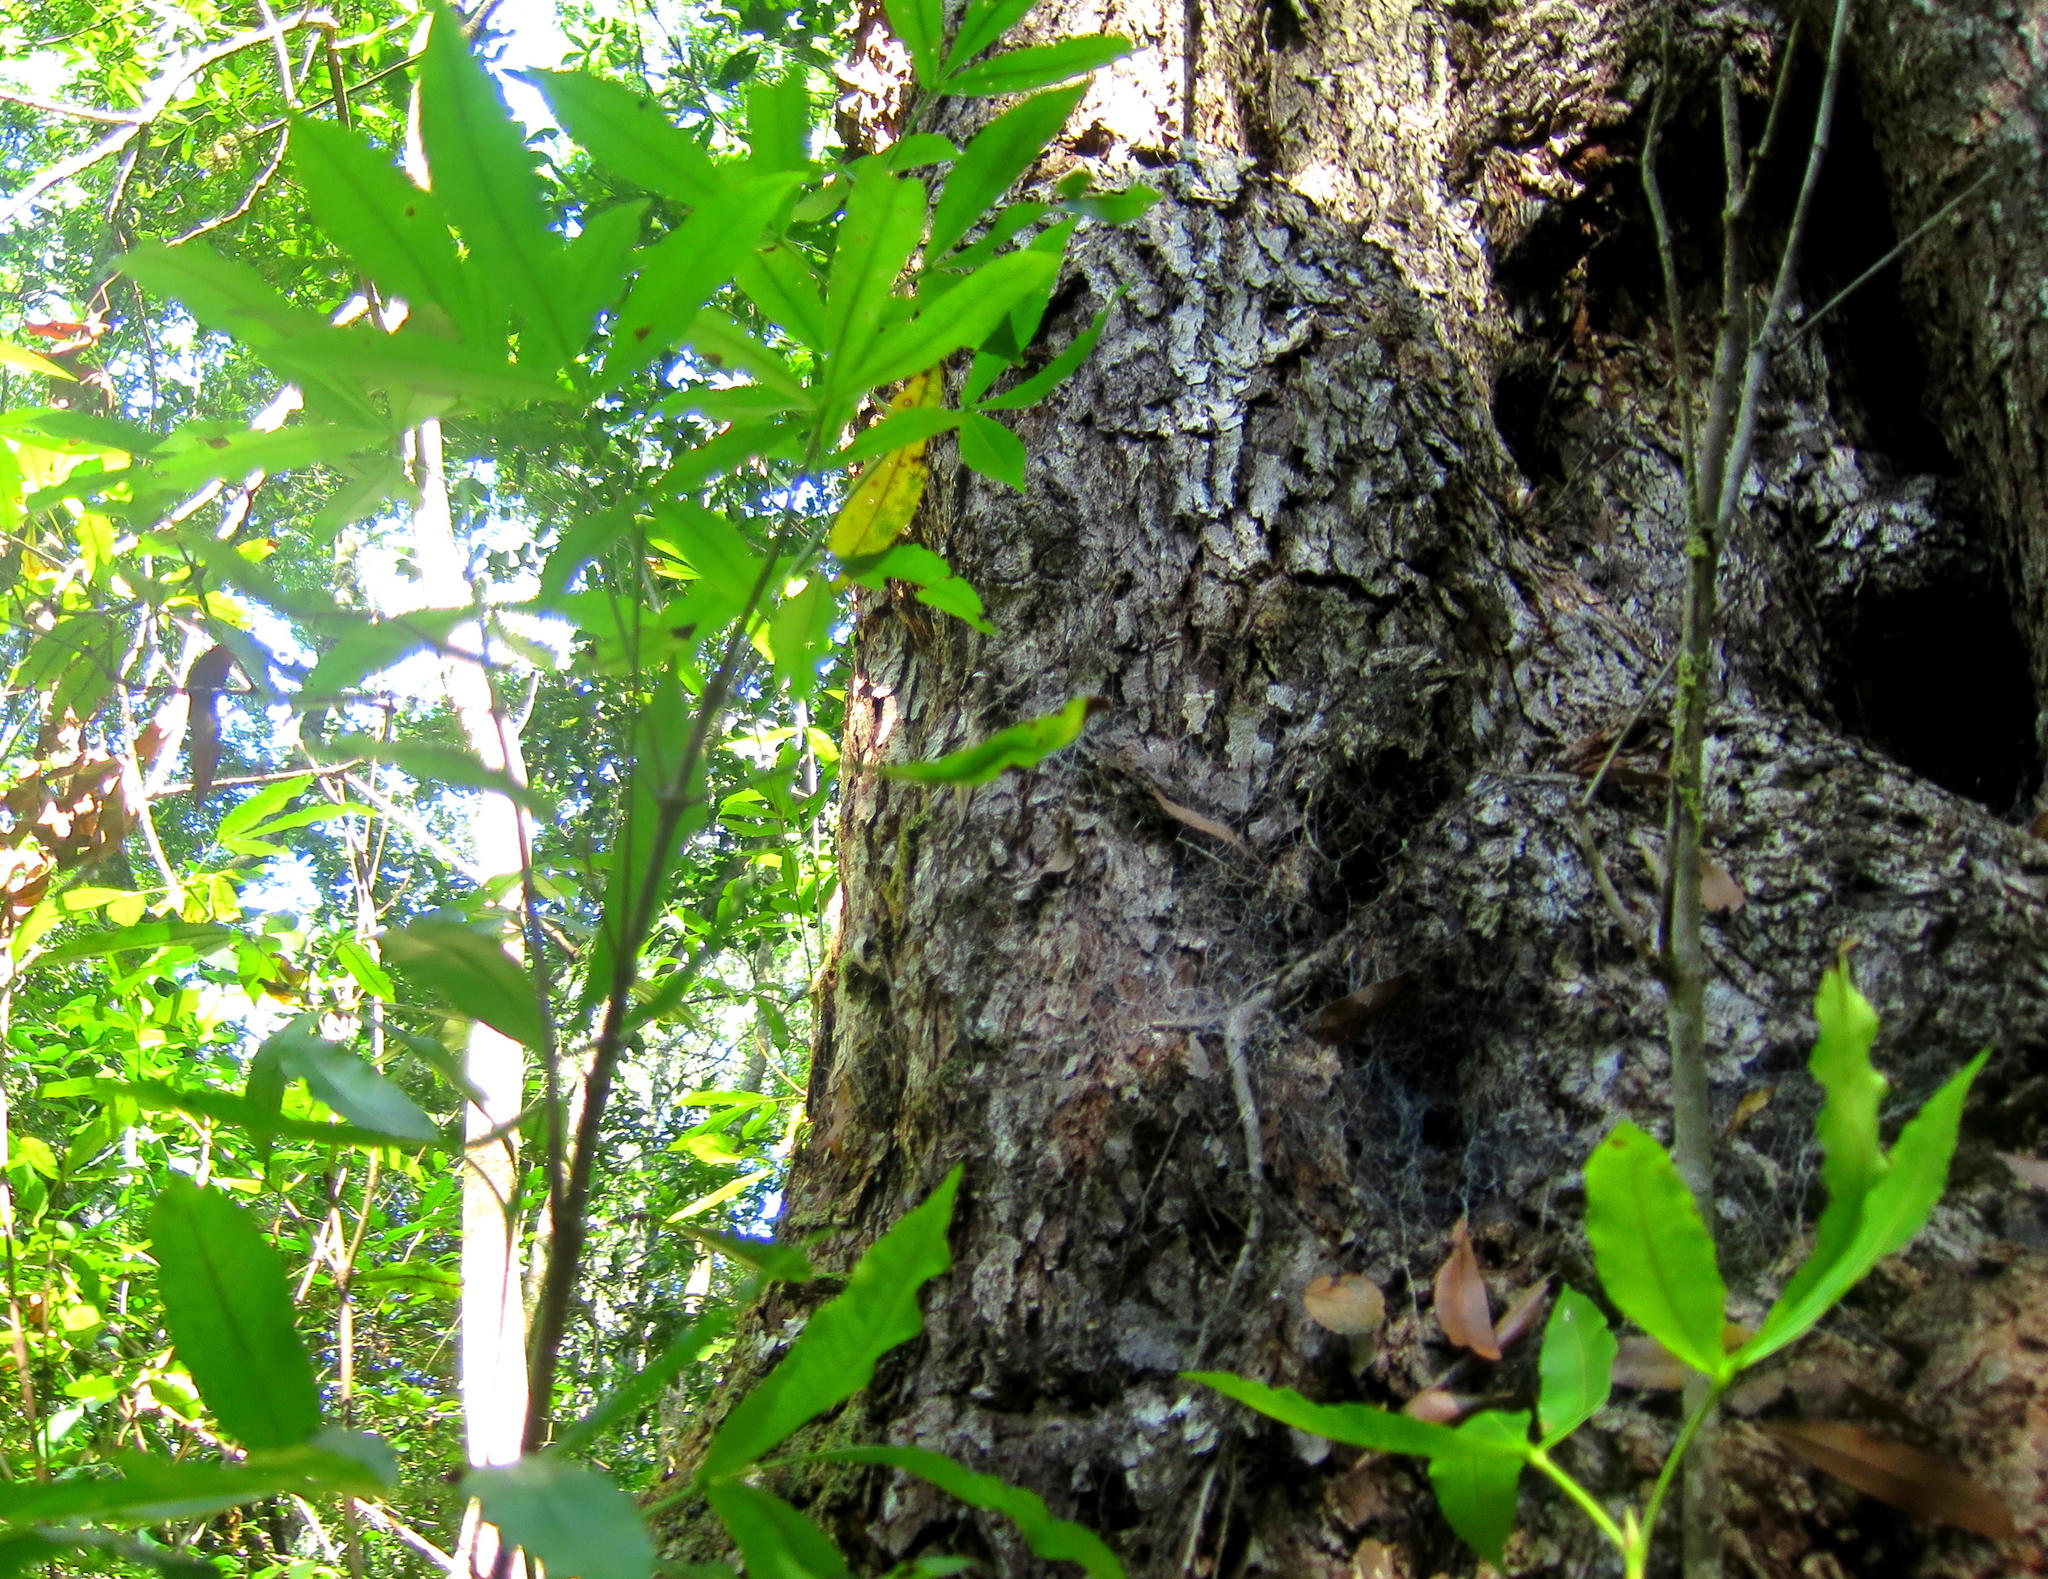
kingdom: Plantae
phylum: Tracheophyta
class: Magnoliopsida
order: Oxalidales
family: Cunoniaceae
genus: Platylophus
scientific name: Platylophus trifoliatus
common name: White alder
